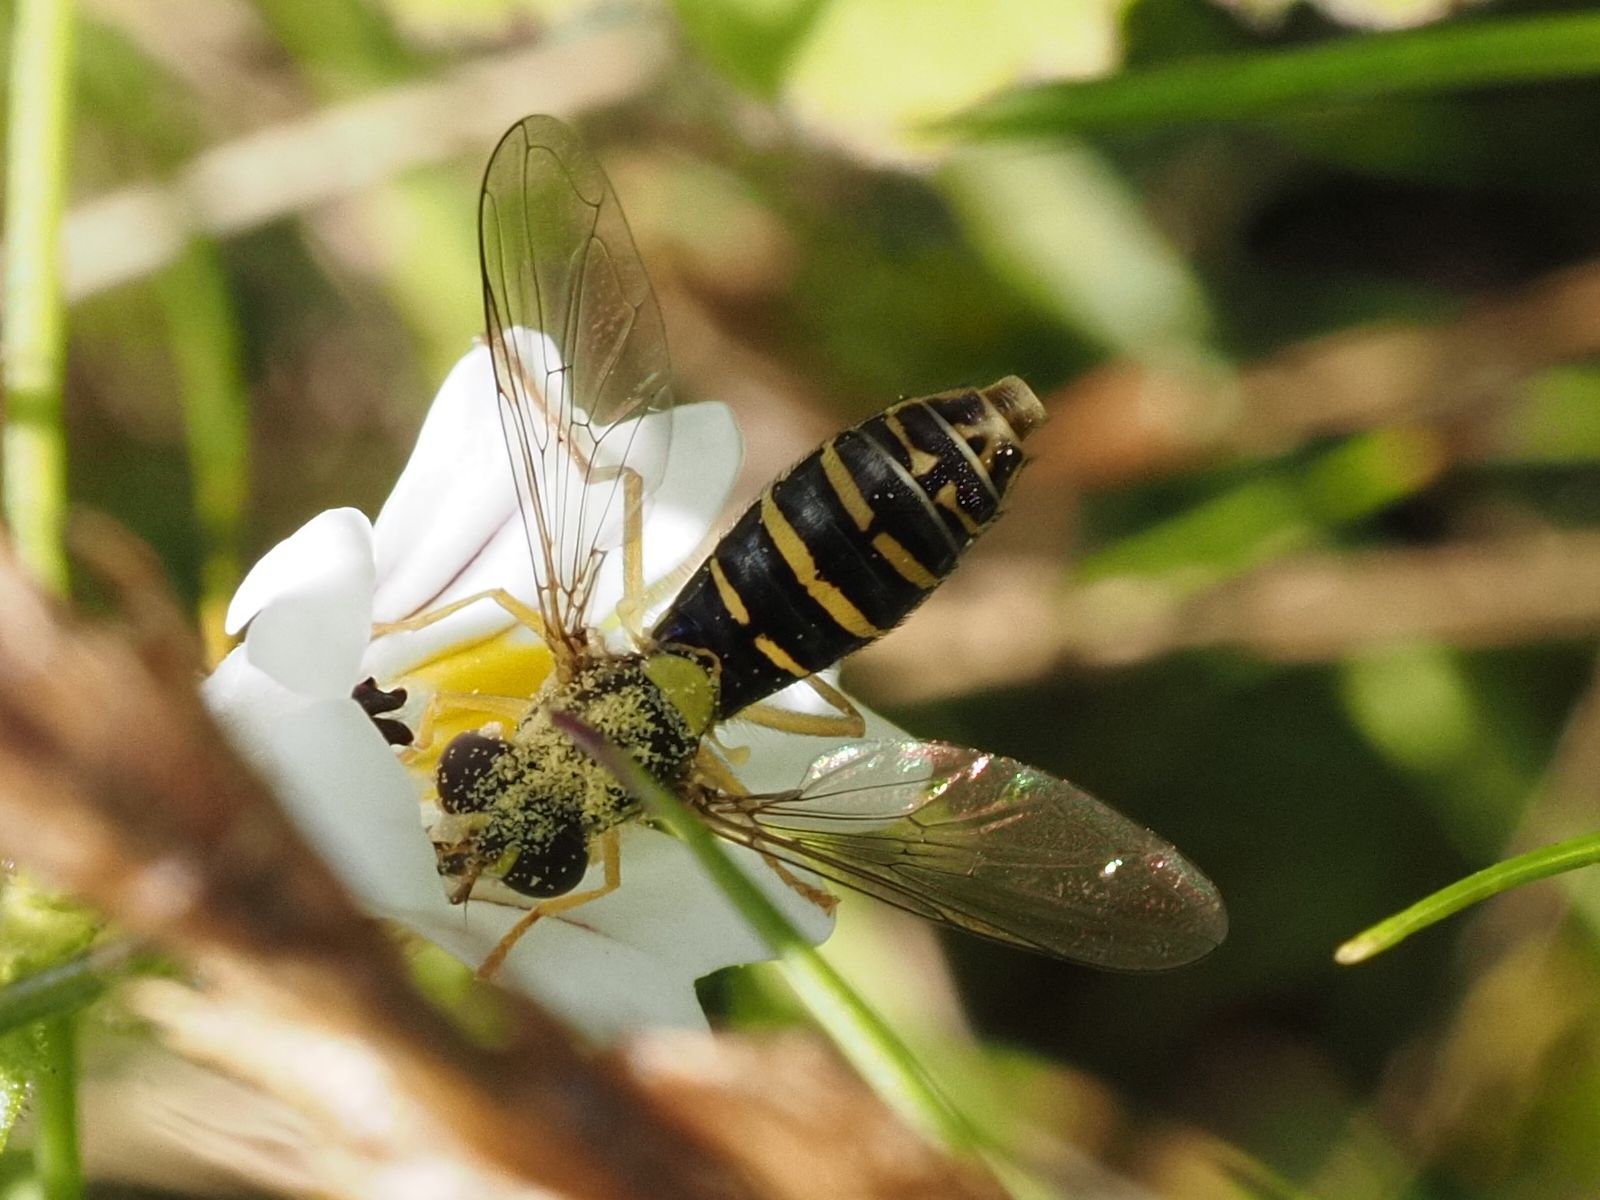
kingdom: Animalia
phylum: Arthropoda
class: Insecta
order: Diptera
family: Syrphidae
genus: Sphaerophoria
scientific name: Sphaerophoria
